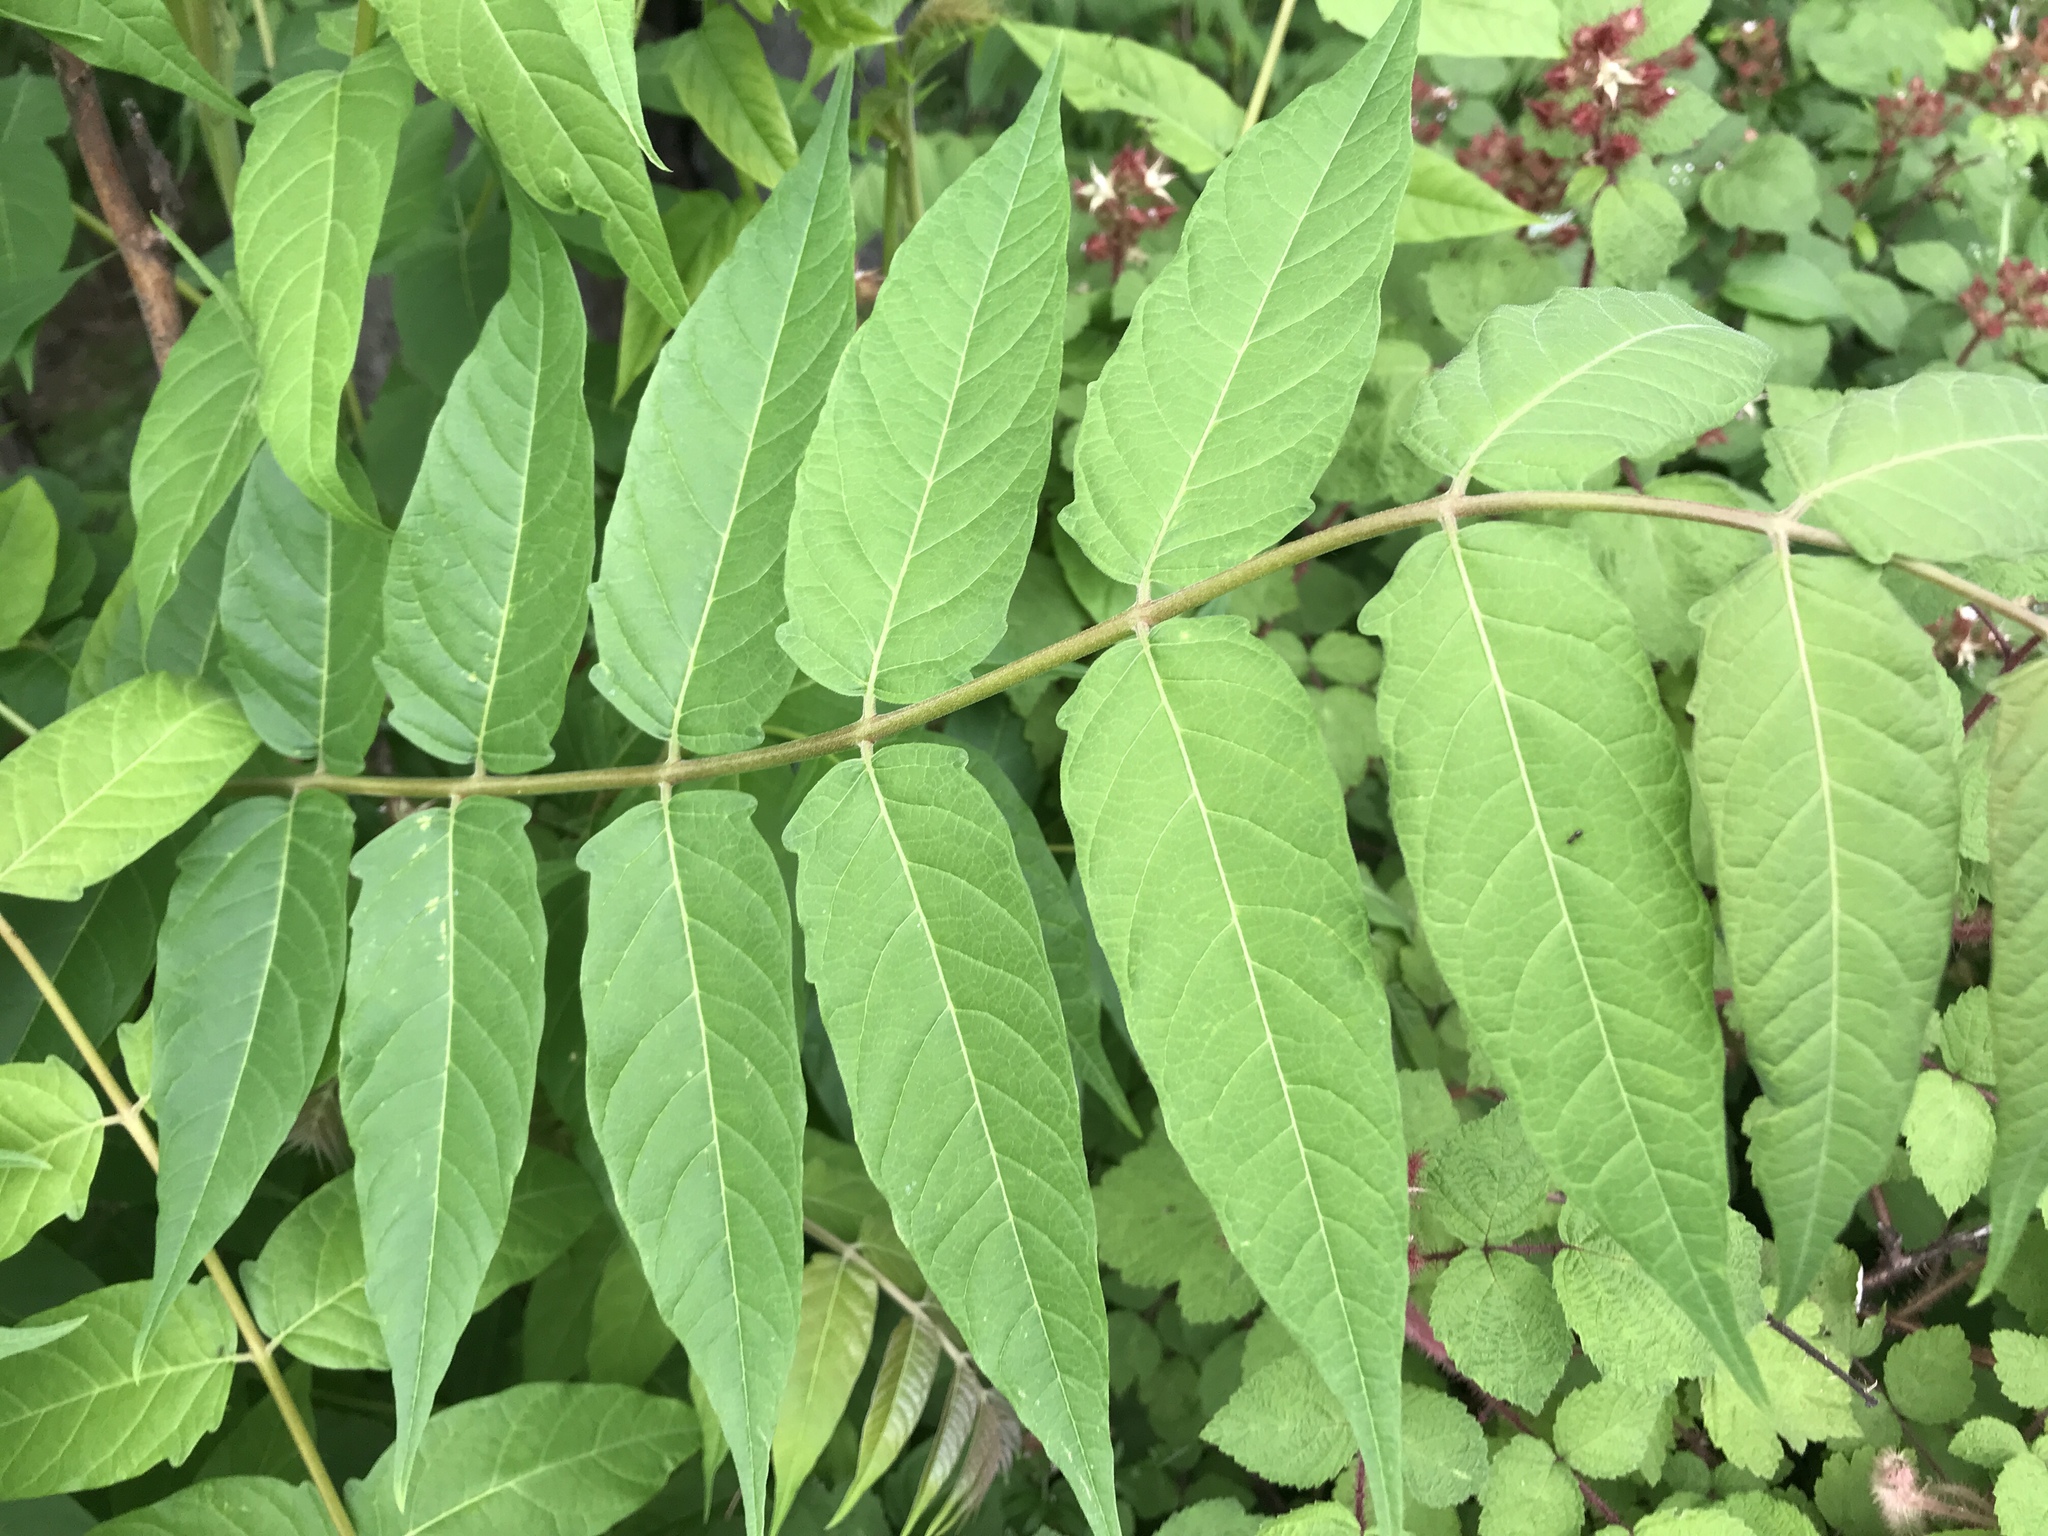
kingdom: Plantae
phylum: Tracheophyta
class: Magnoliopsida
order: Sapindales
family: Simaroubaceae
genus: Ailanthus
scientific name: Ailanthus altissima
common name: Tree-of-heaven
